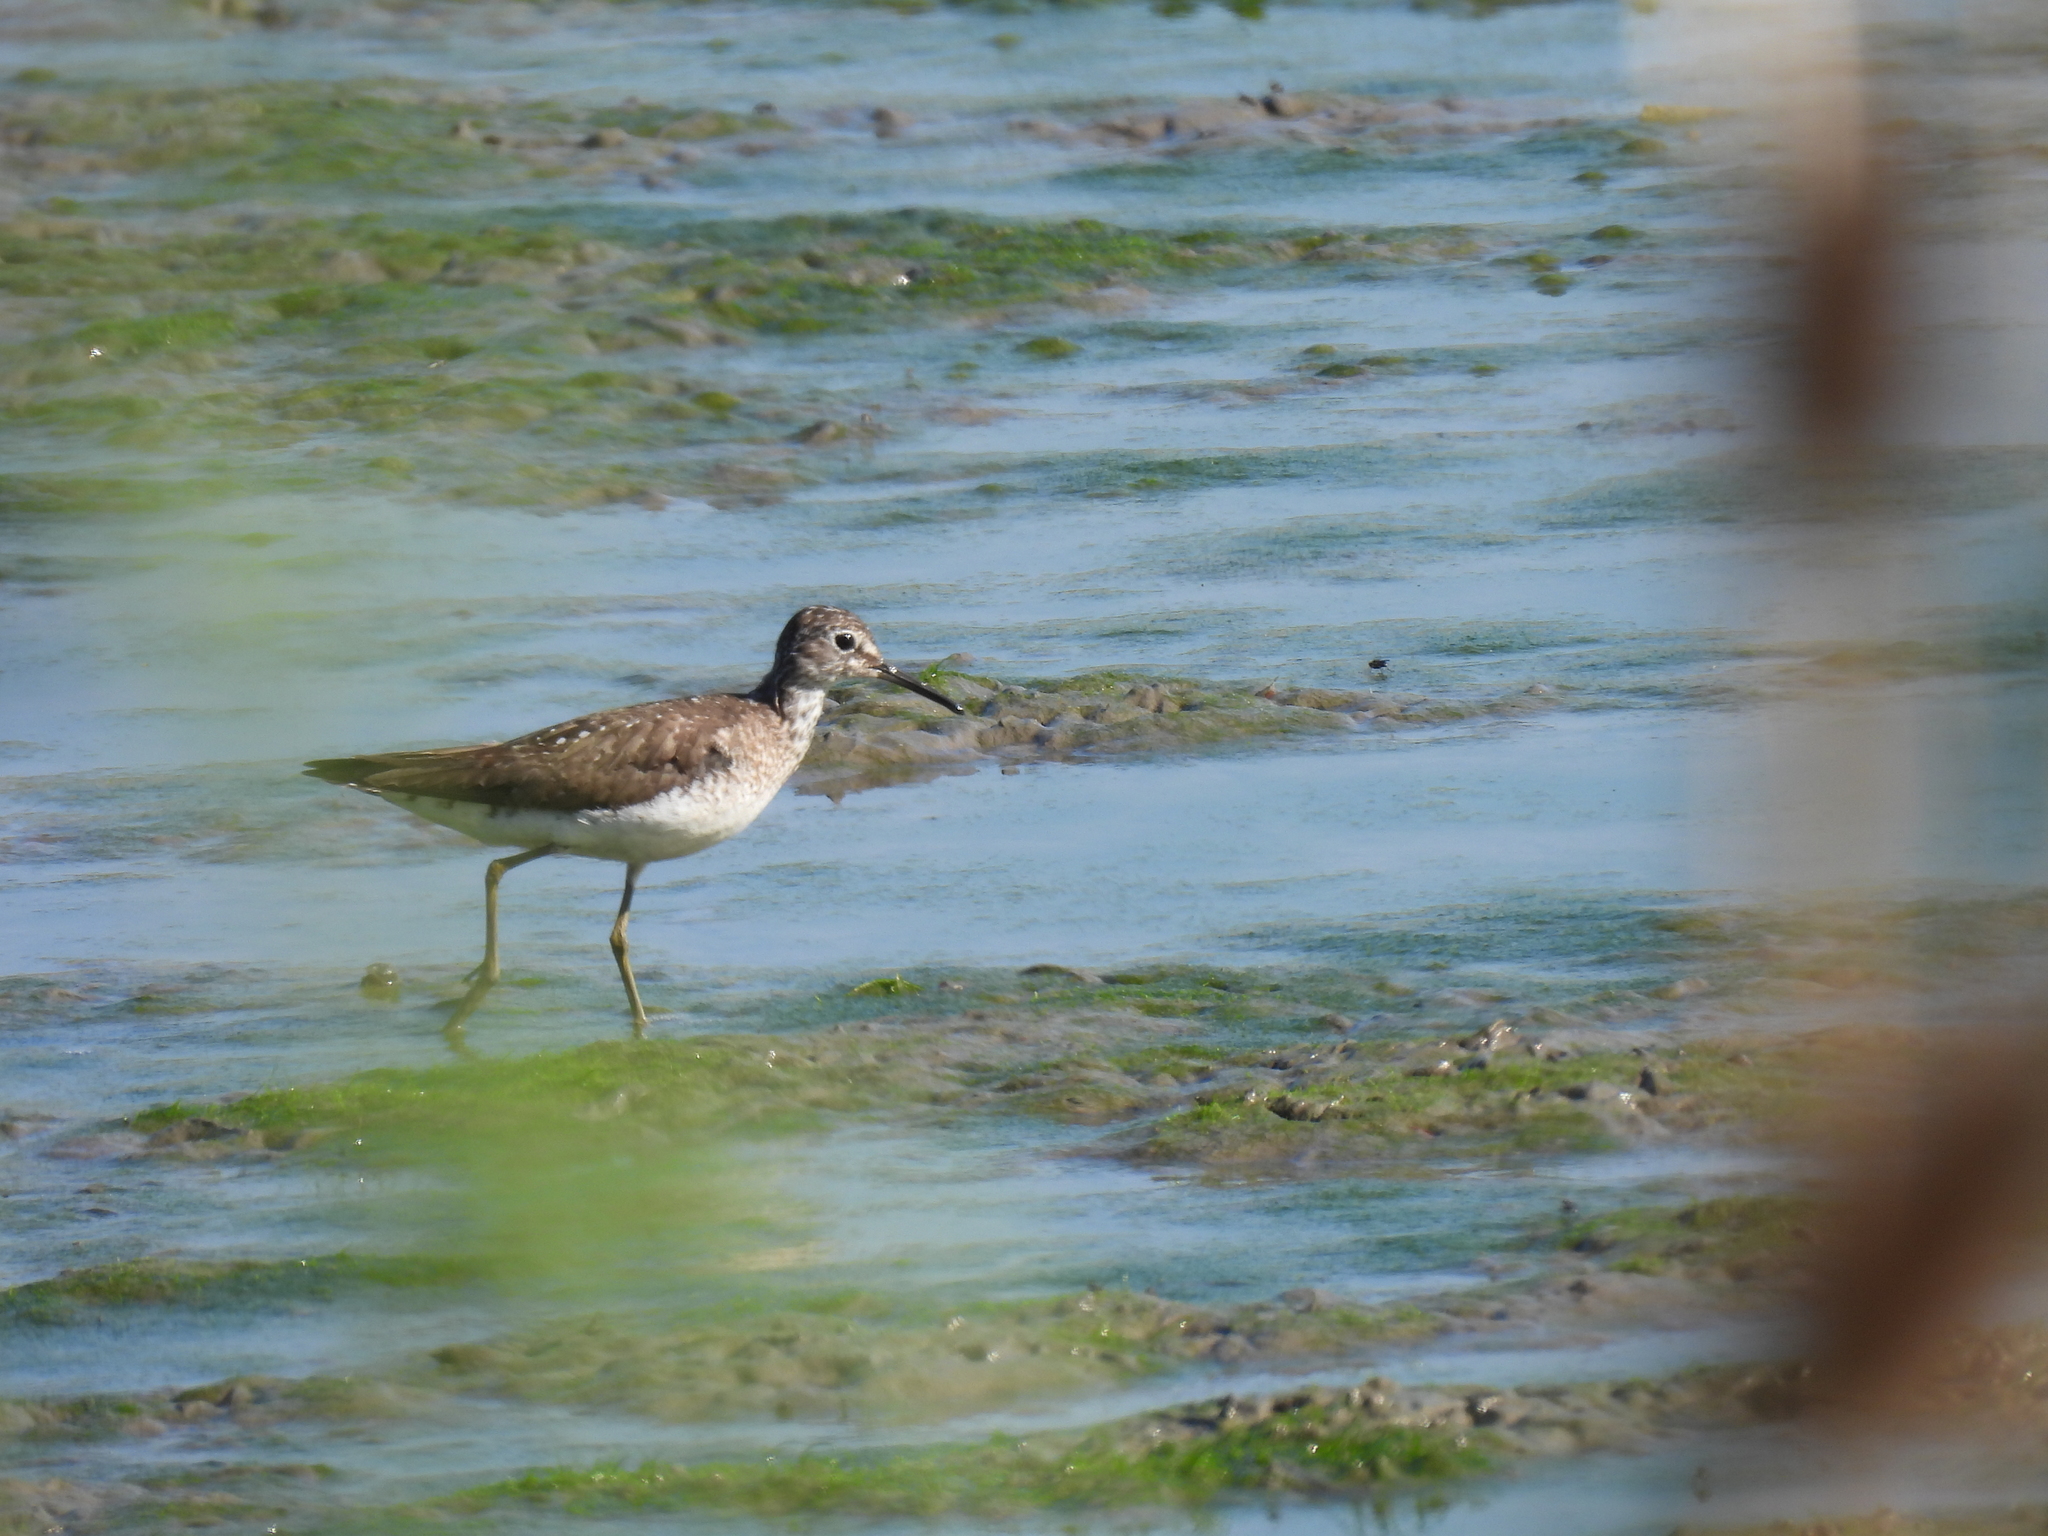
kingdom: Animalia
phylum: Chordata
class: Aves
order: Charadriiformes
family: Scolopacidae
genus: Tringa
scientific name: Tringa solitaria
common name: Solitary sandpiper
